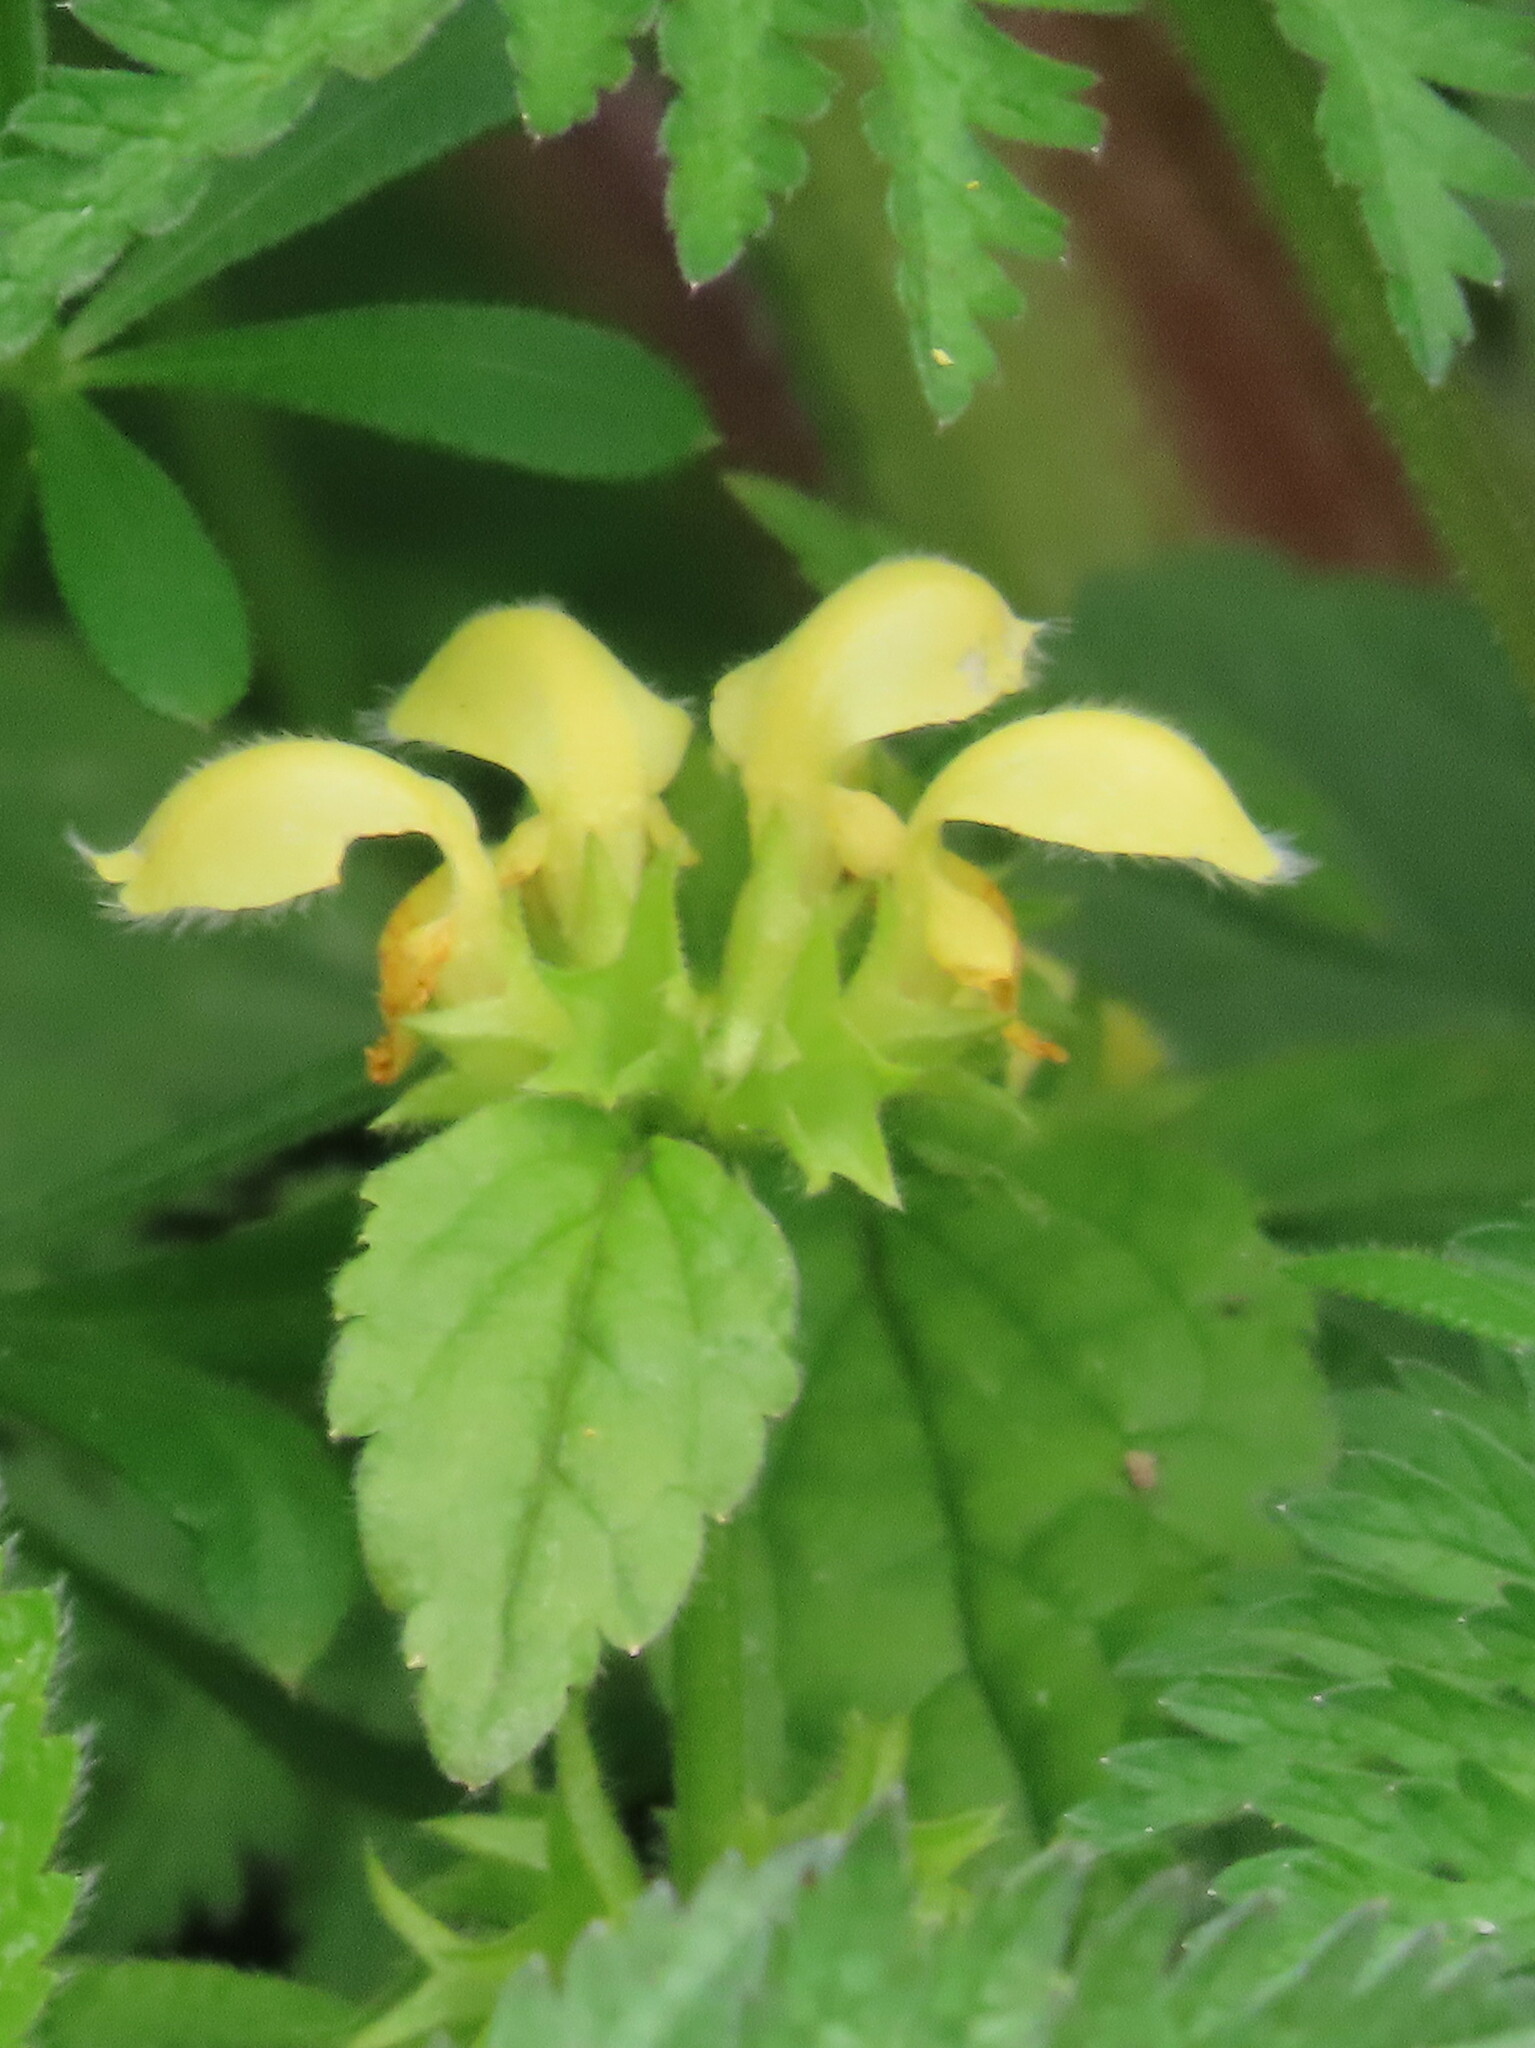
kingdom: Plantae
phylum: Tracheophyta
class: Magnoliopsida
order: Lamiales
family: Lamiaceae
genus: Lamium
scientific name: Lamium galeobdolon
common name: Yellow archangel
